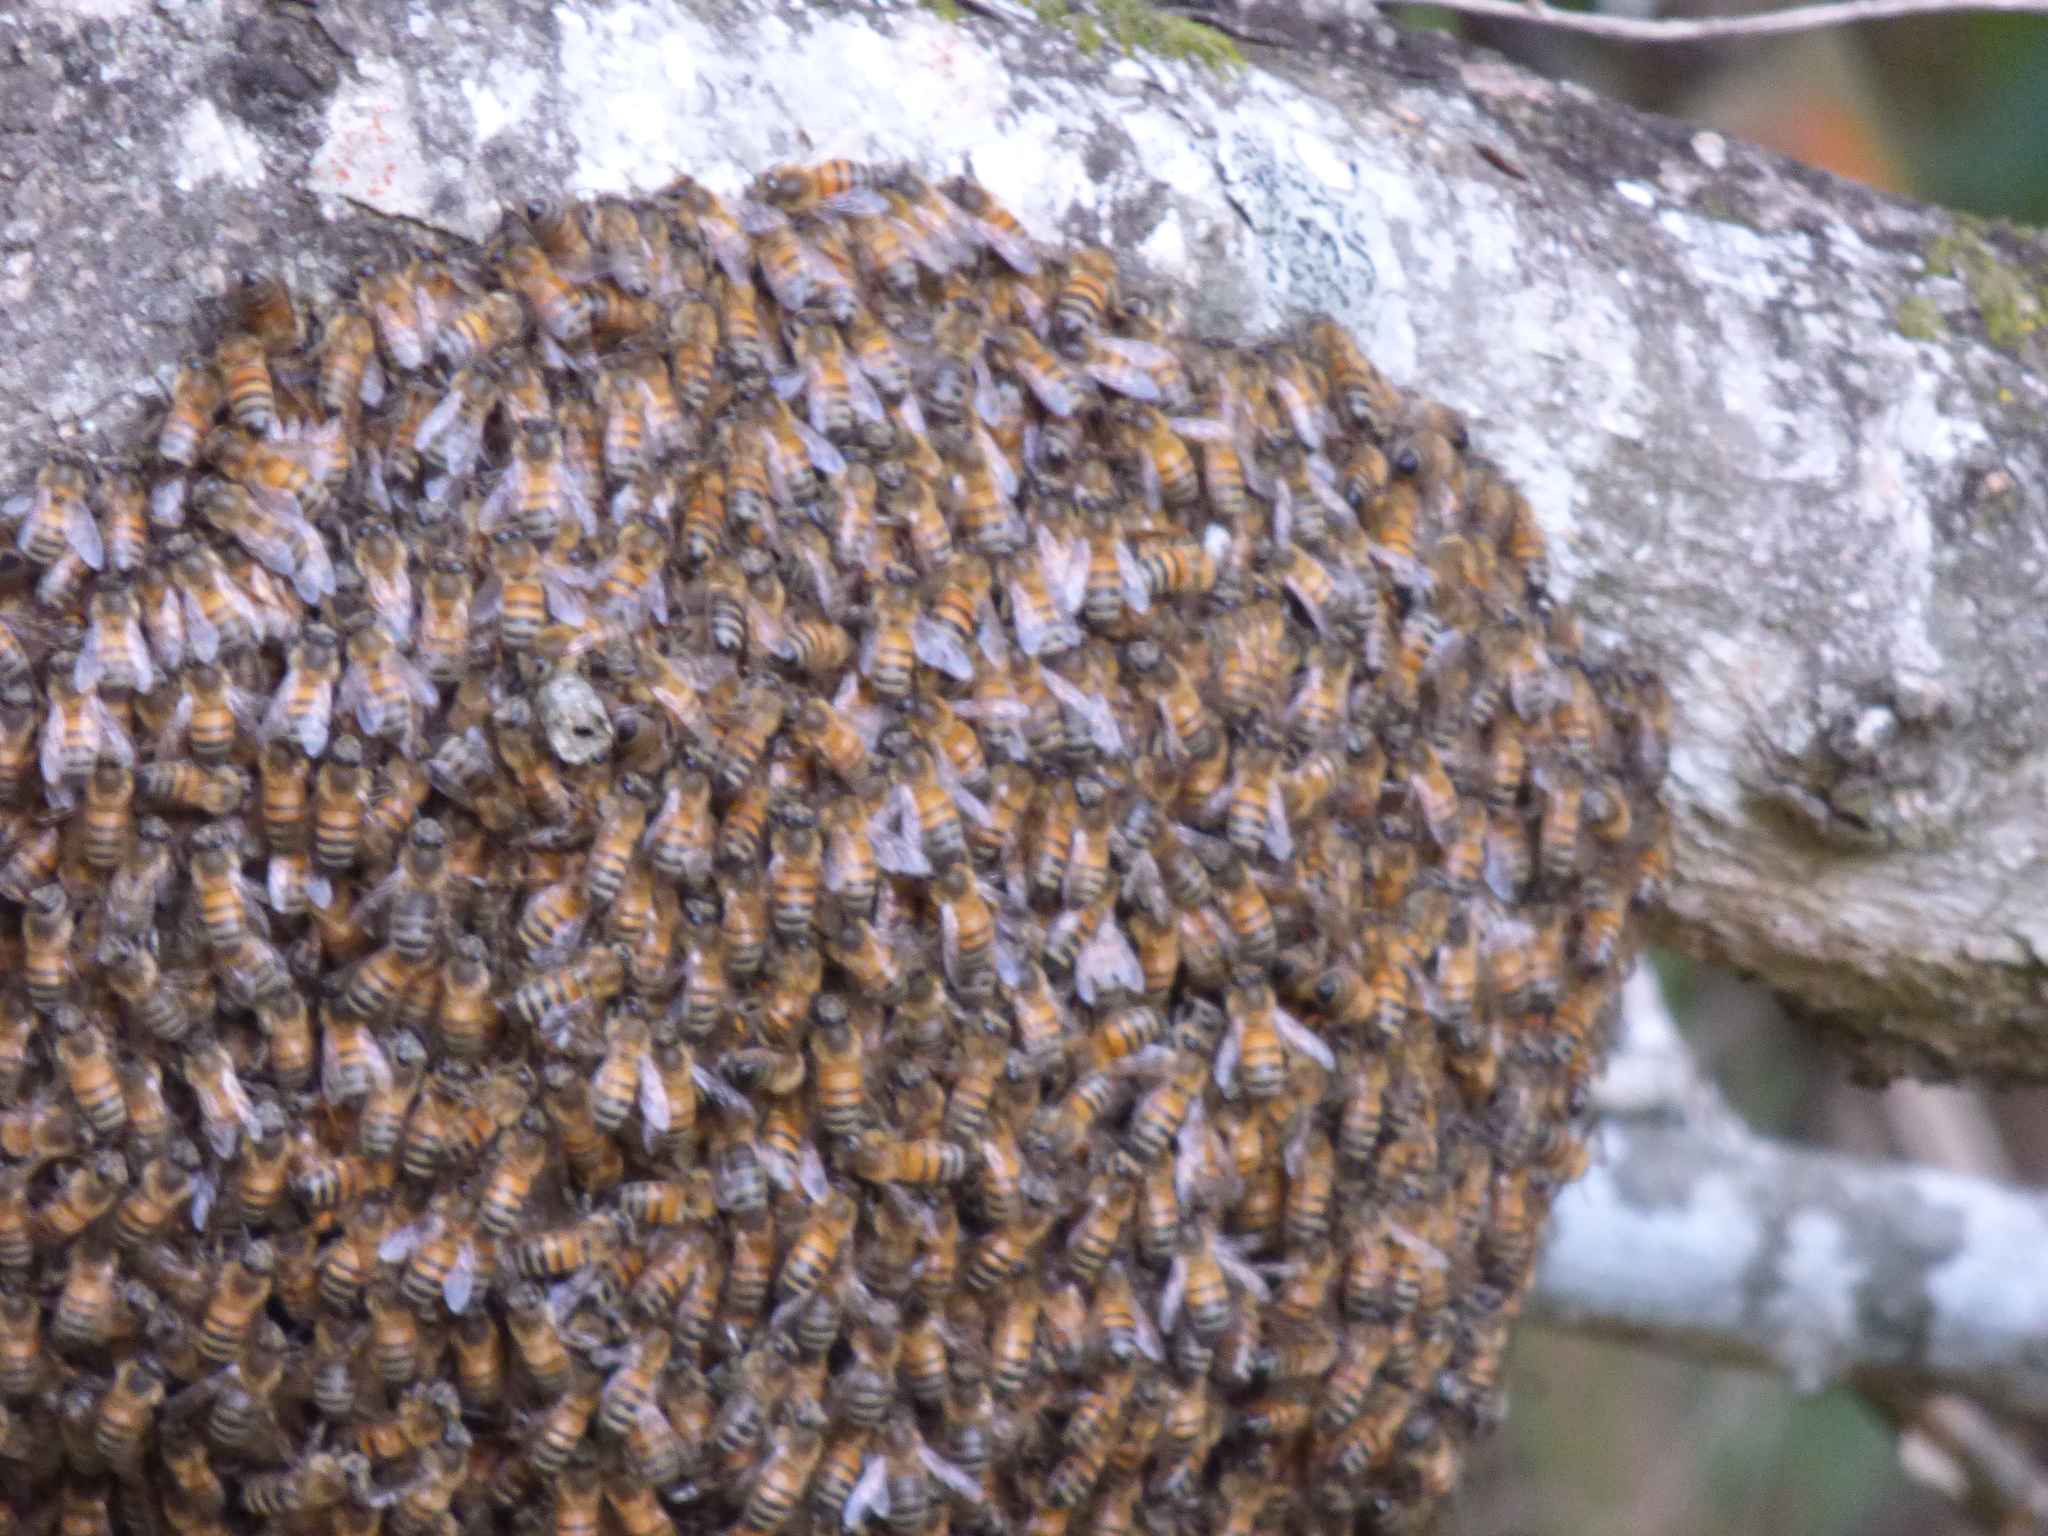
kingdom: Animalia
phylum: Arthropoda
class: Insecta
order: Hymenoptera
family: Apidae
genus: Apis
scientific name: Apis mellifera
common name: Honey bee
